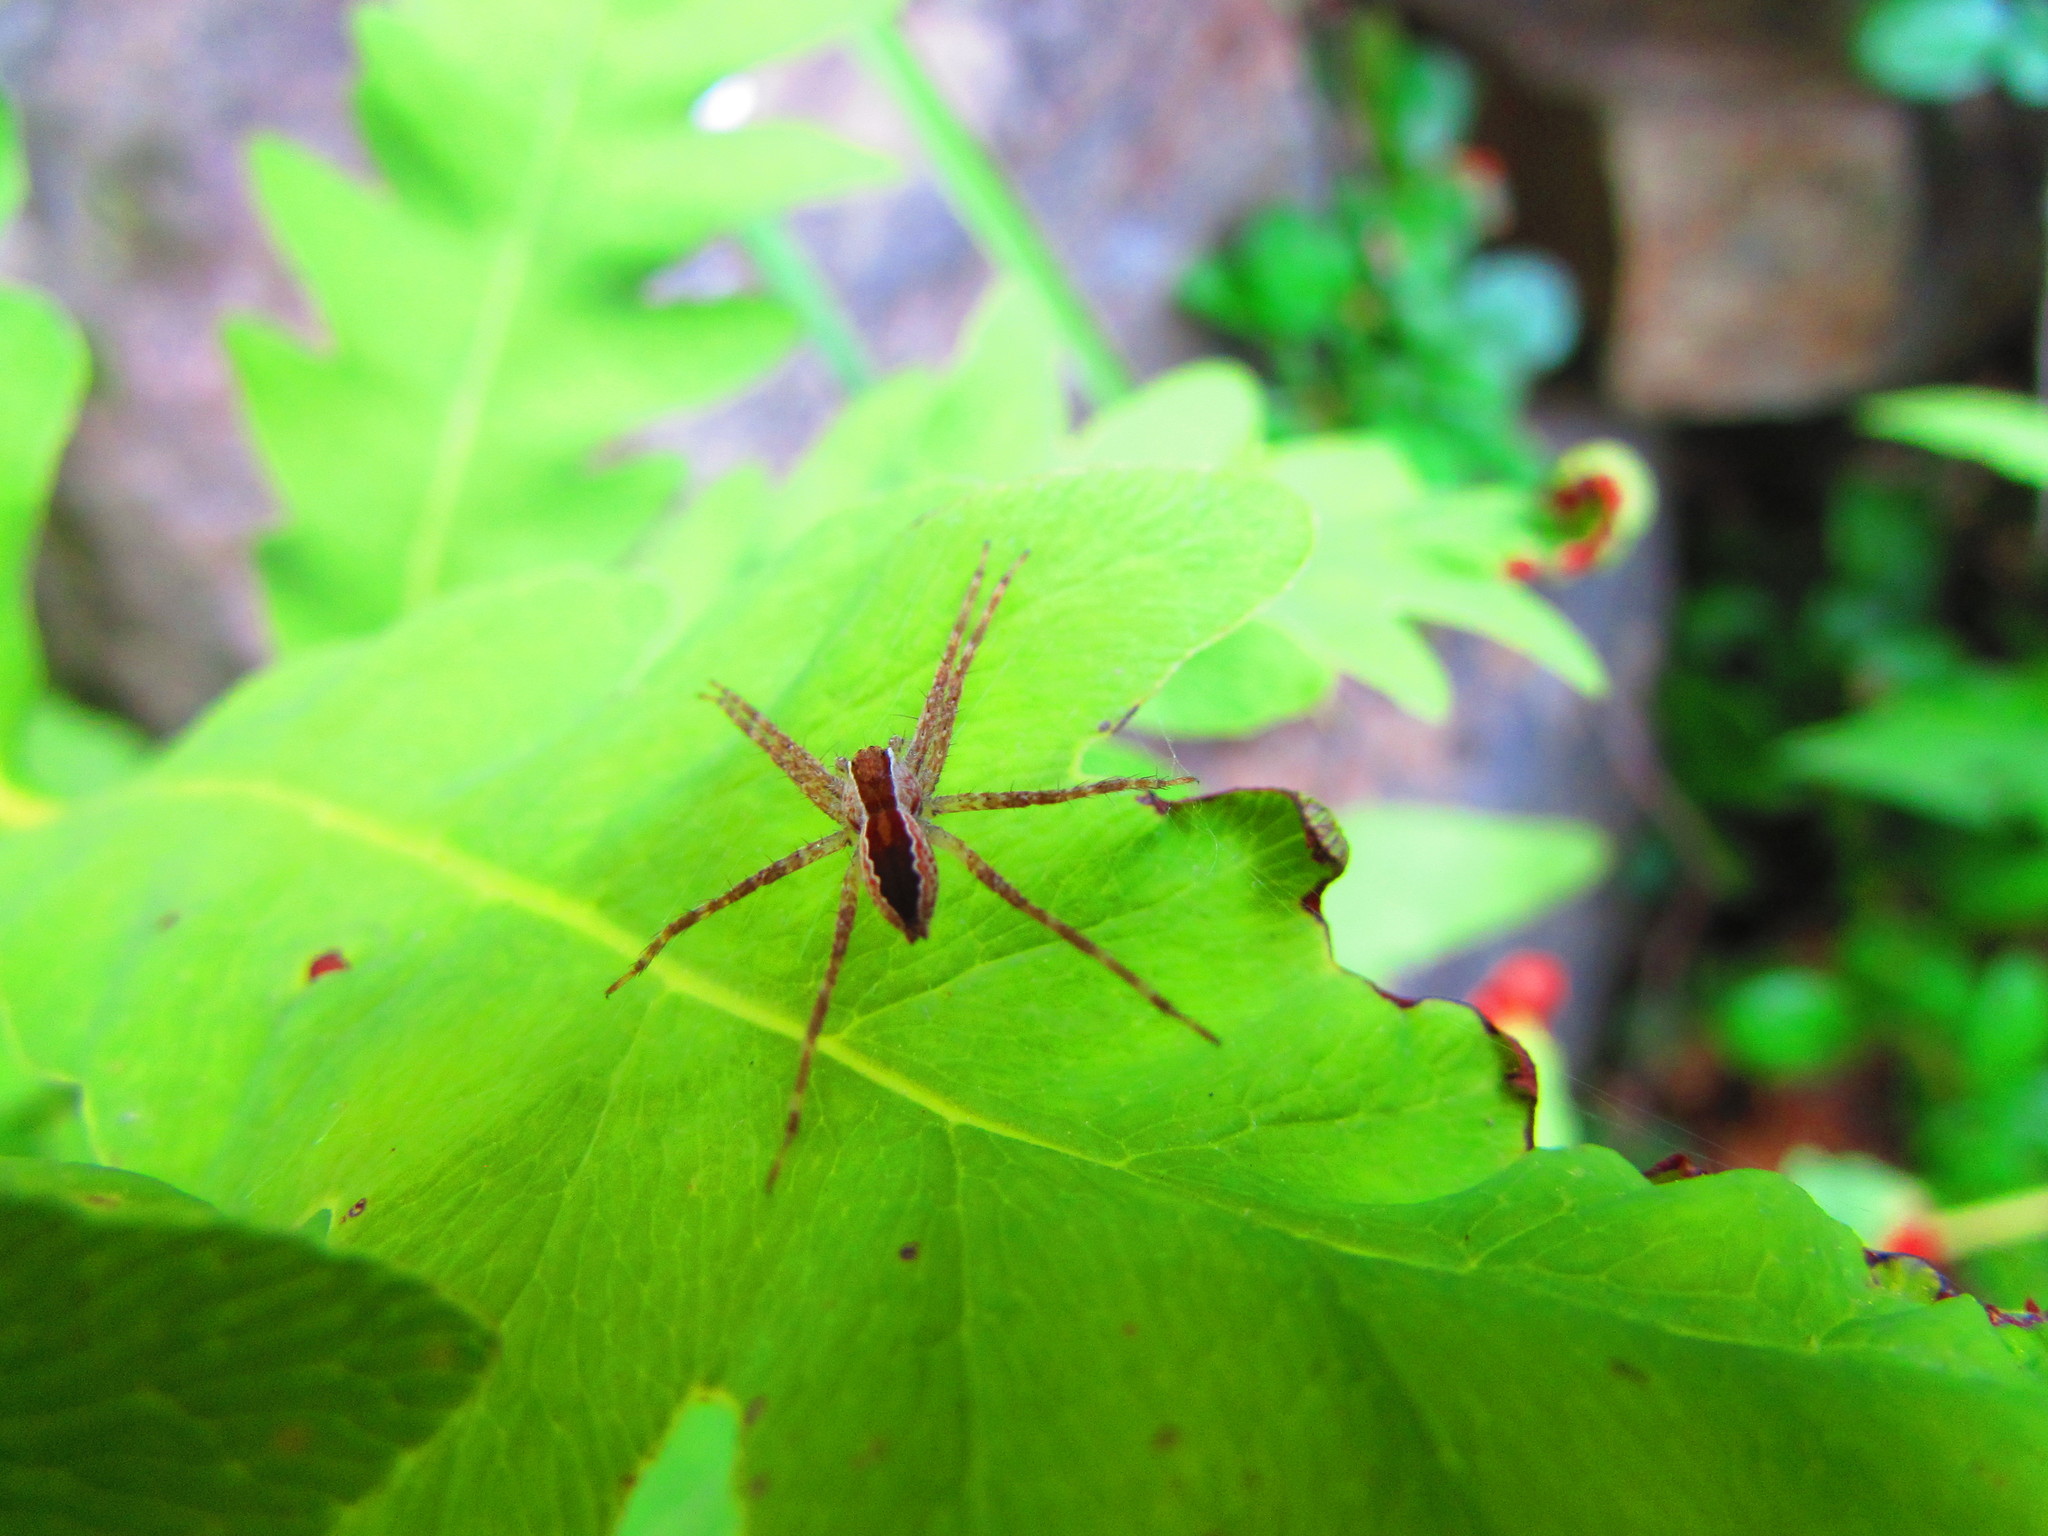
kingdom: Animalia
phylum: Arthropoda
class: Arachnida
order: Araneae
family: Pisauridae
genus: Pisaurina
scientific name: Pisaurina mira
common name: American nursery web spider
